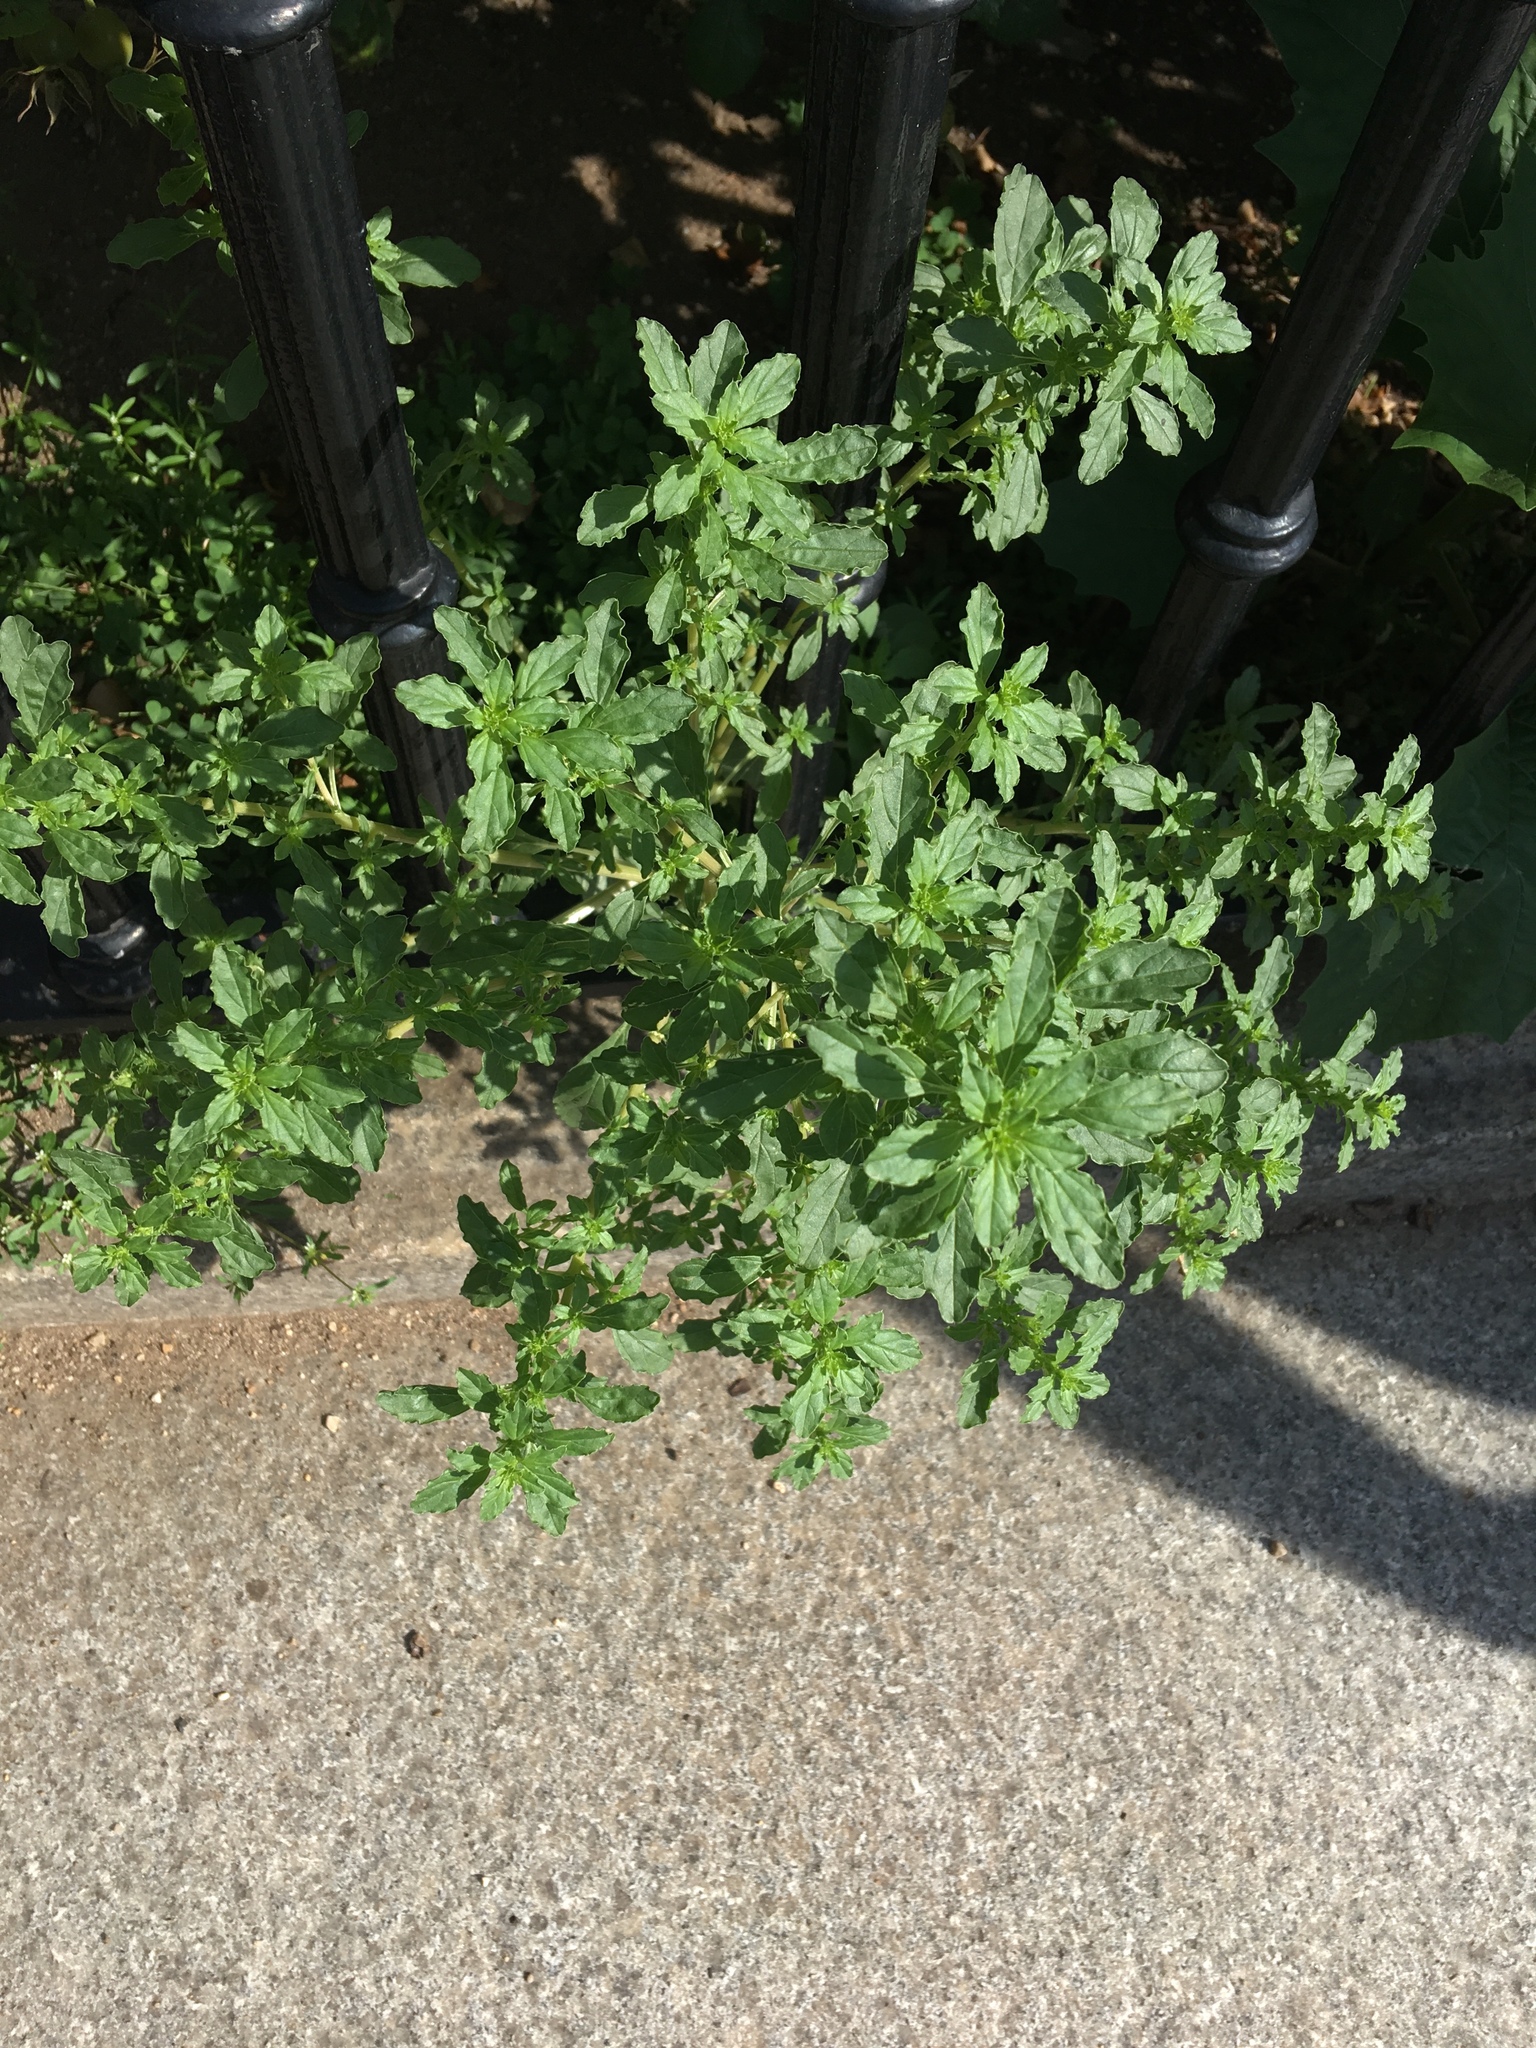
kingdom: Plantae
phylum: Tracheophyta
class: Magnoliopsida
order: Caryophyllales
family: Amaranthaceae
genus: Amaranthus
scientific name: Amaranthus albus
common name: White pigweed
